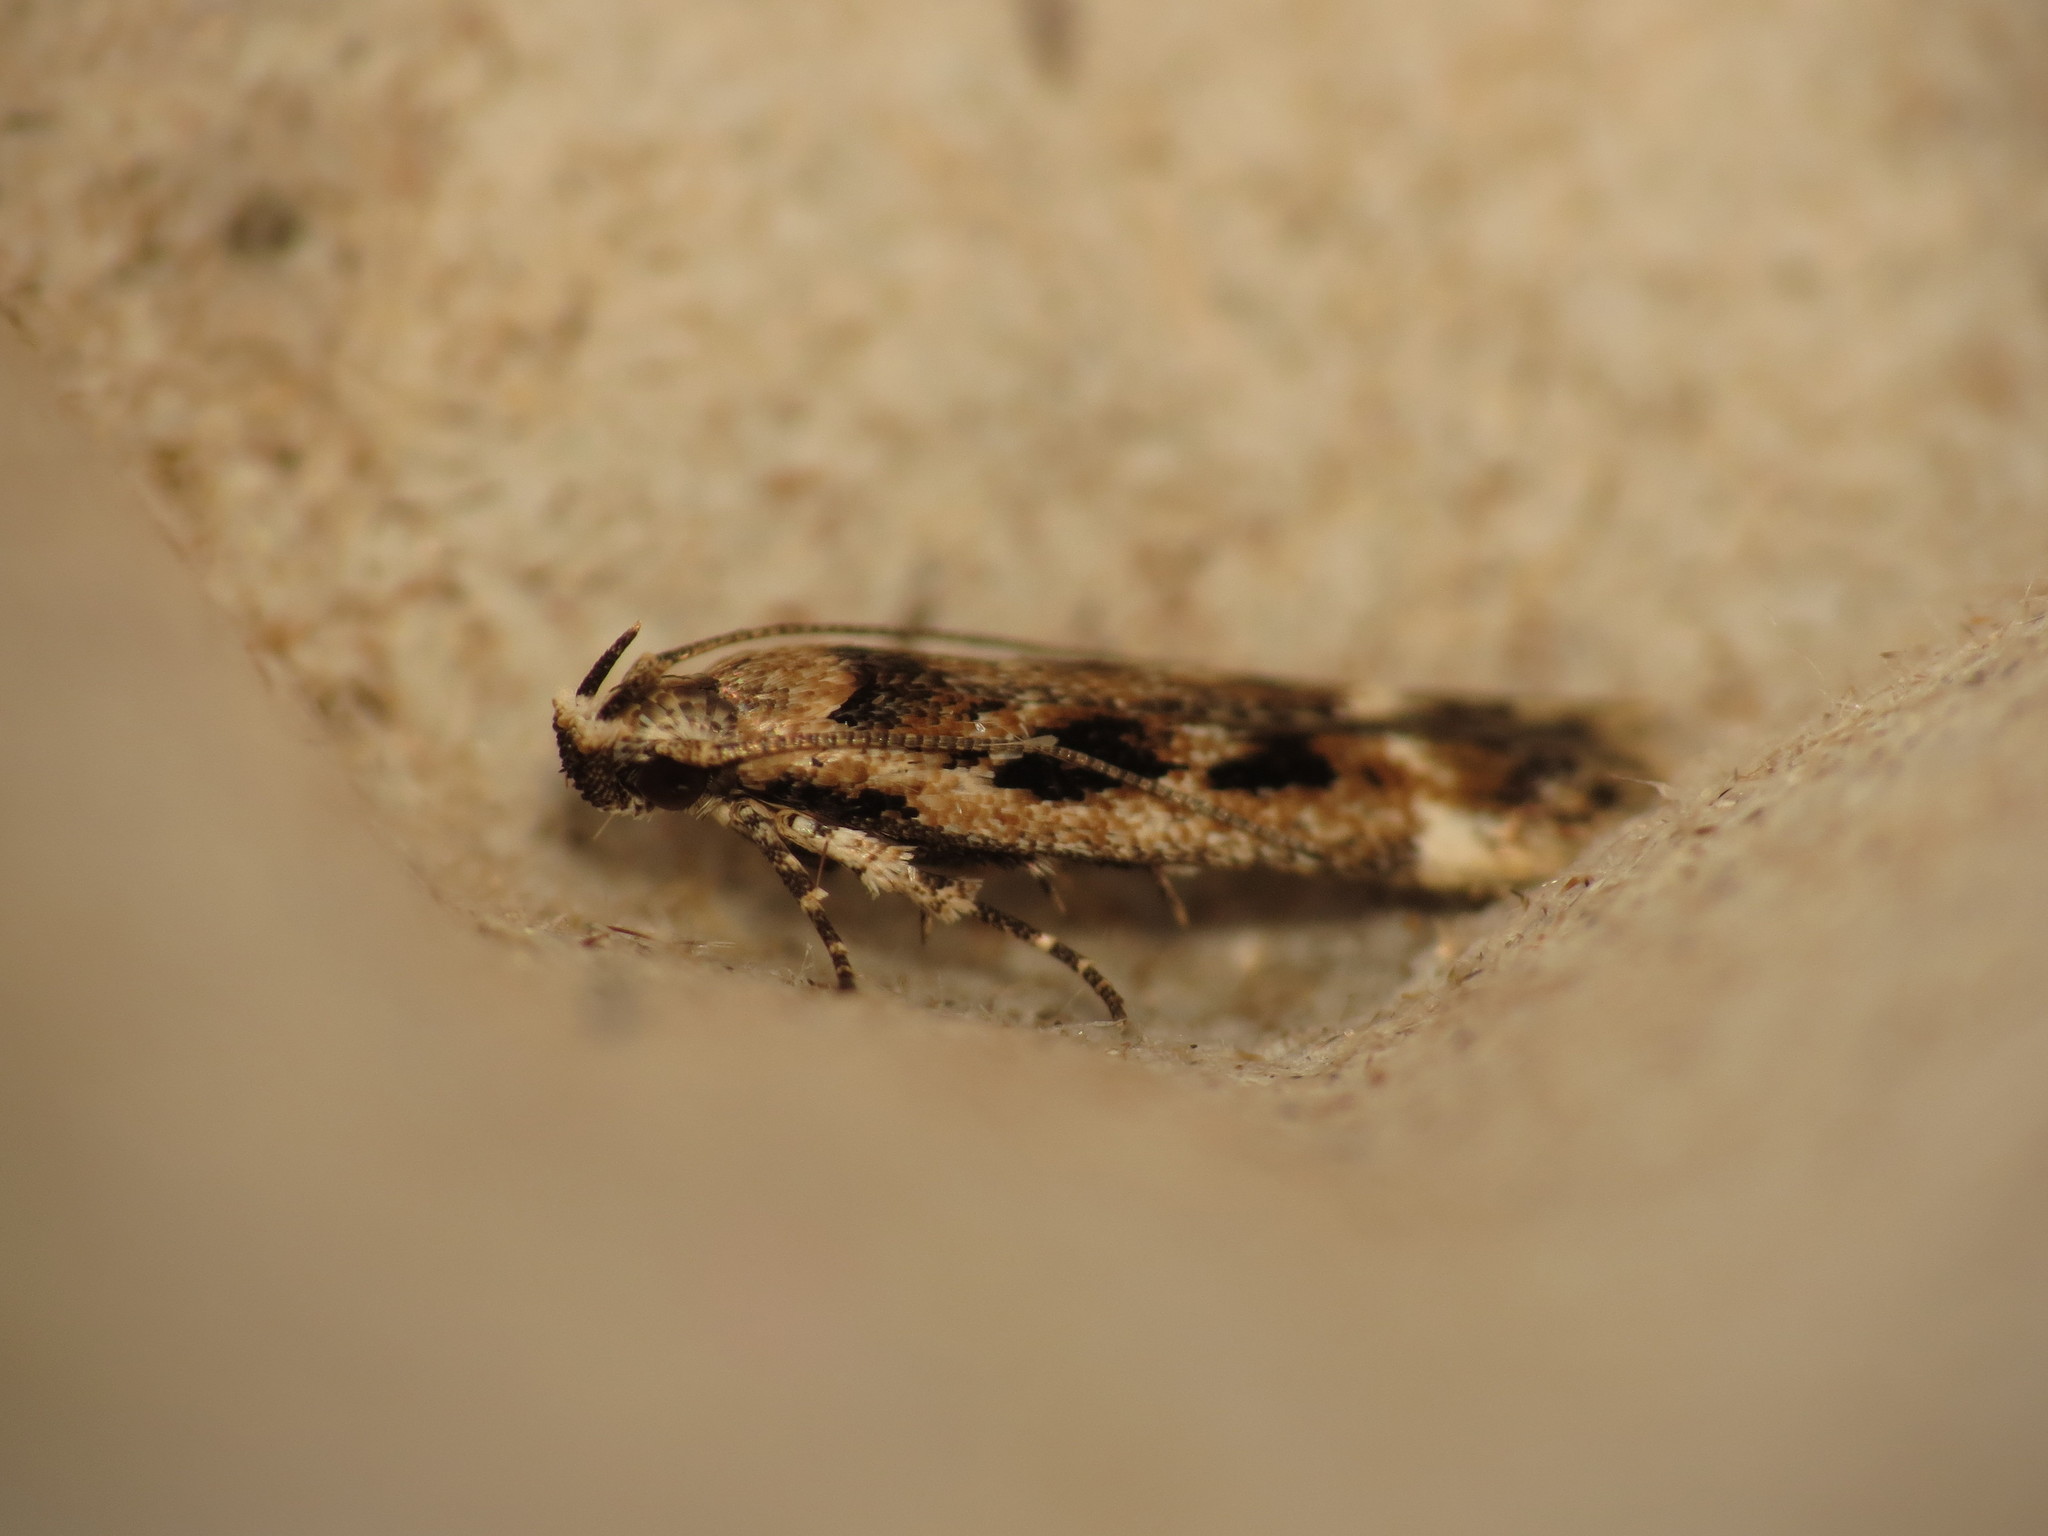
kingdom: Animalia
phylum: Arthropoda
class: Insecta
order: Lepidoptera
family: Gelechiidae
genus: Caryocolum
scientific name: Caryocolum fischerella
